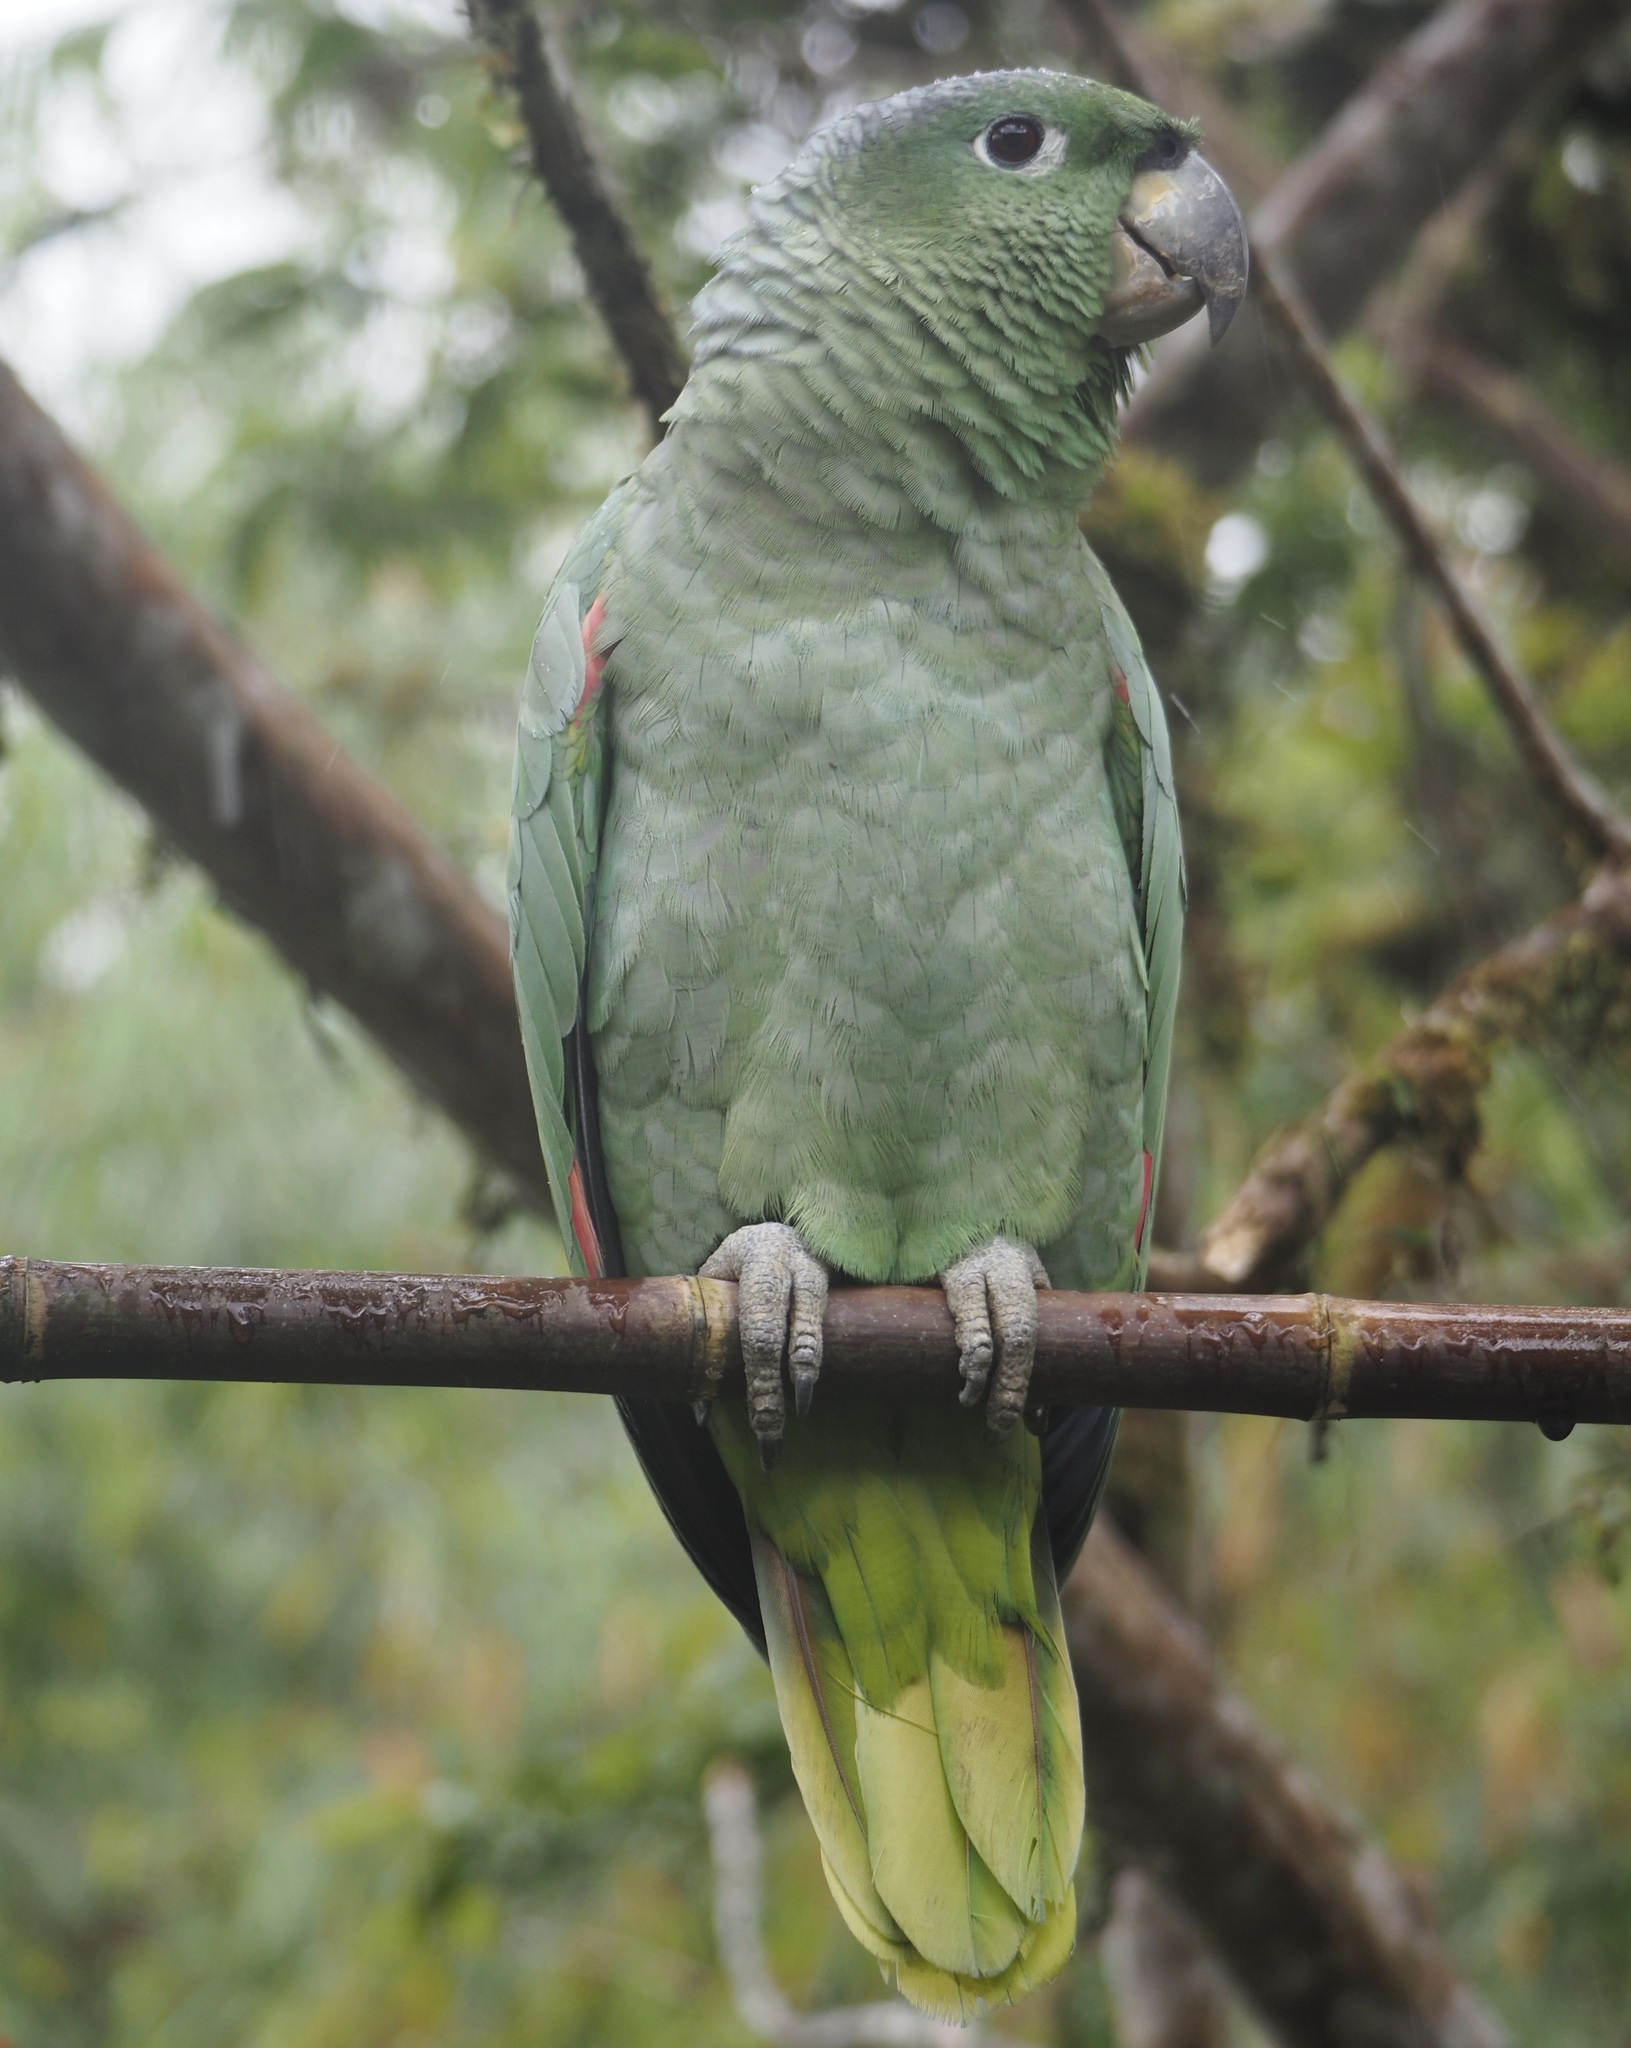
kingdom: Animalia
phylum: Chordata
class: Aves
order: Psittaciformes
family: Psittacidae
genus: Amazona
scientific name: Amazona farinosa
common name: Mealy parrot
